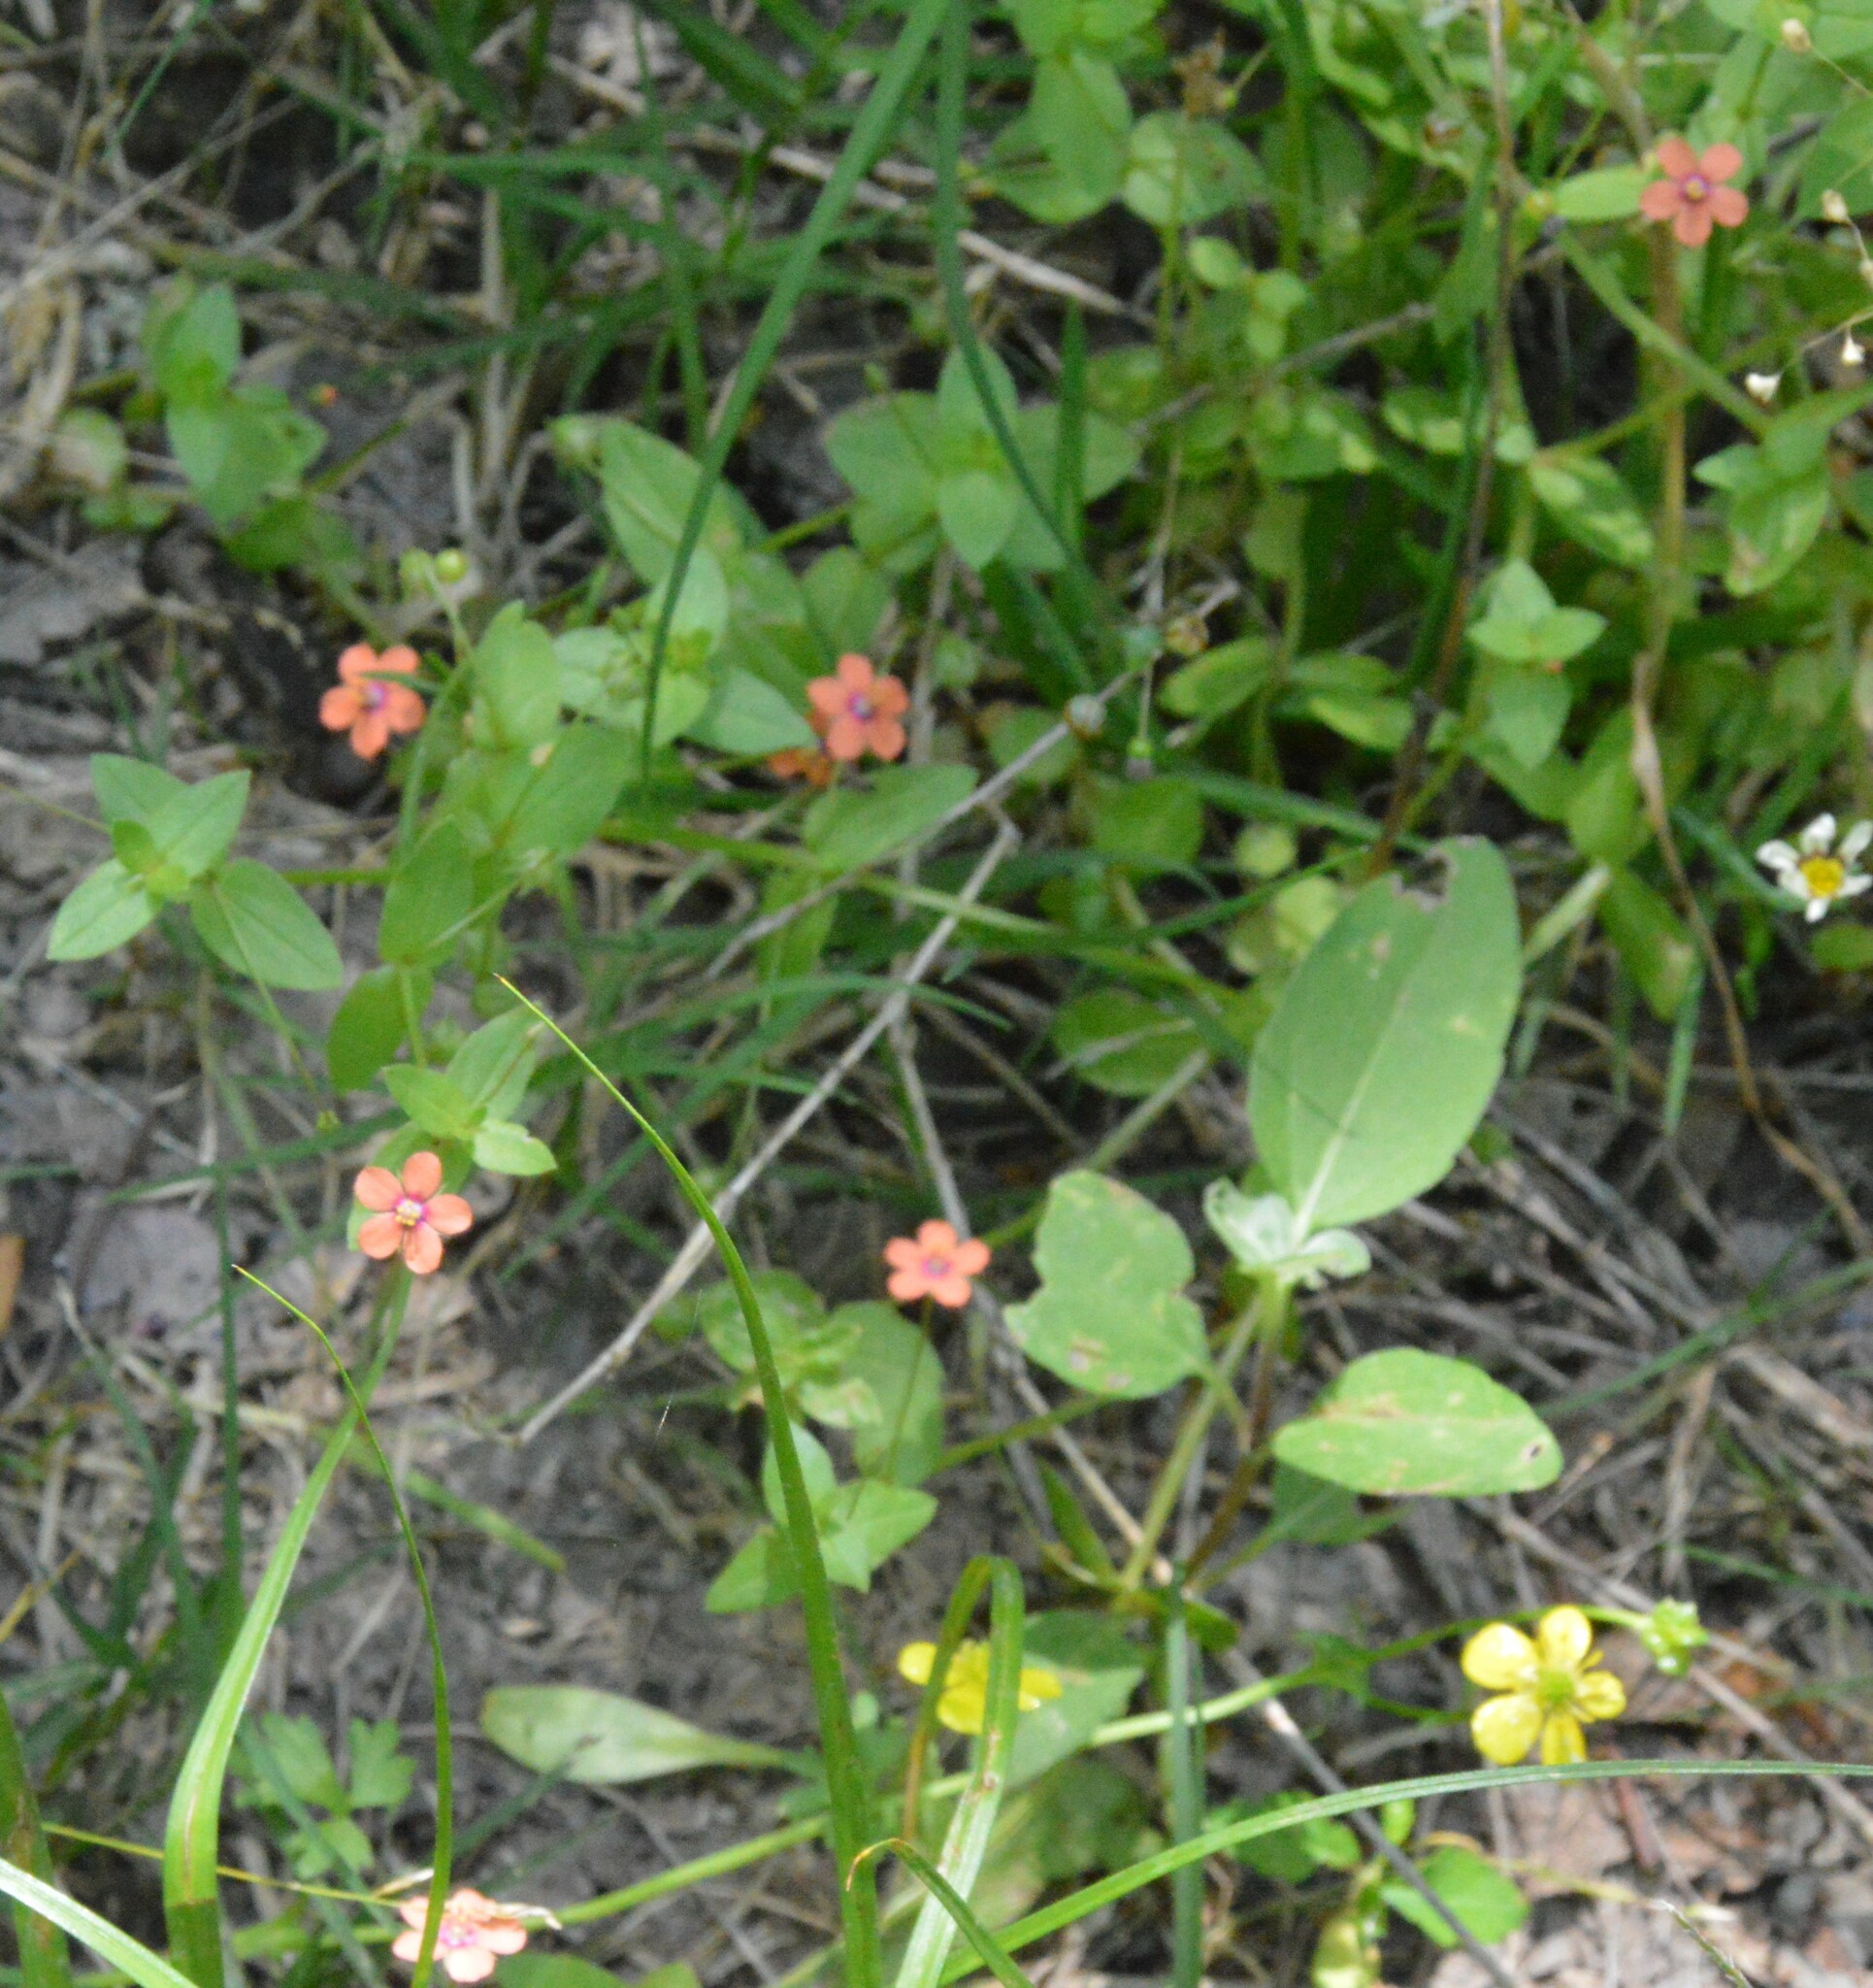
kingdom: Plantae
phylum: Tracheophyta
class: Magnoliopsida
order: Ericales
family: Primulaceae
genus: Lysimachia
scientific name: Lysimachia arvensis
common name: Scarlet pimpernel
